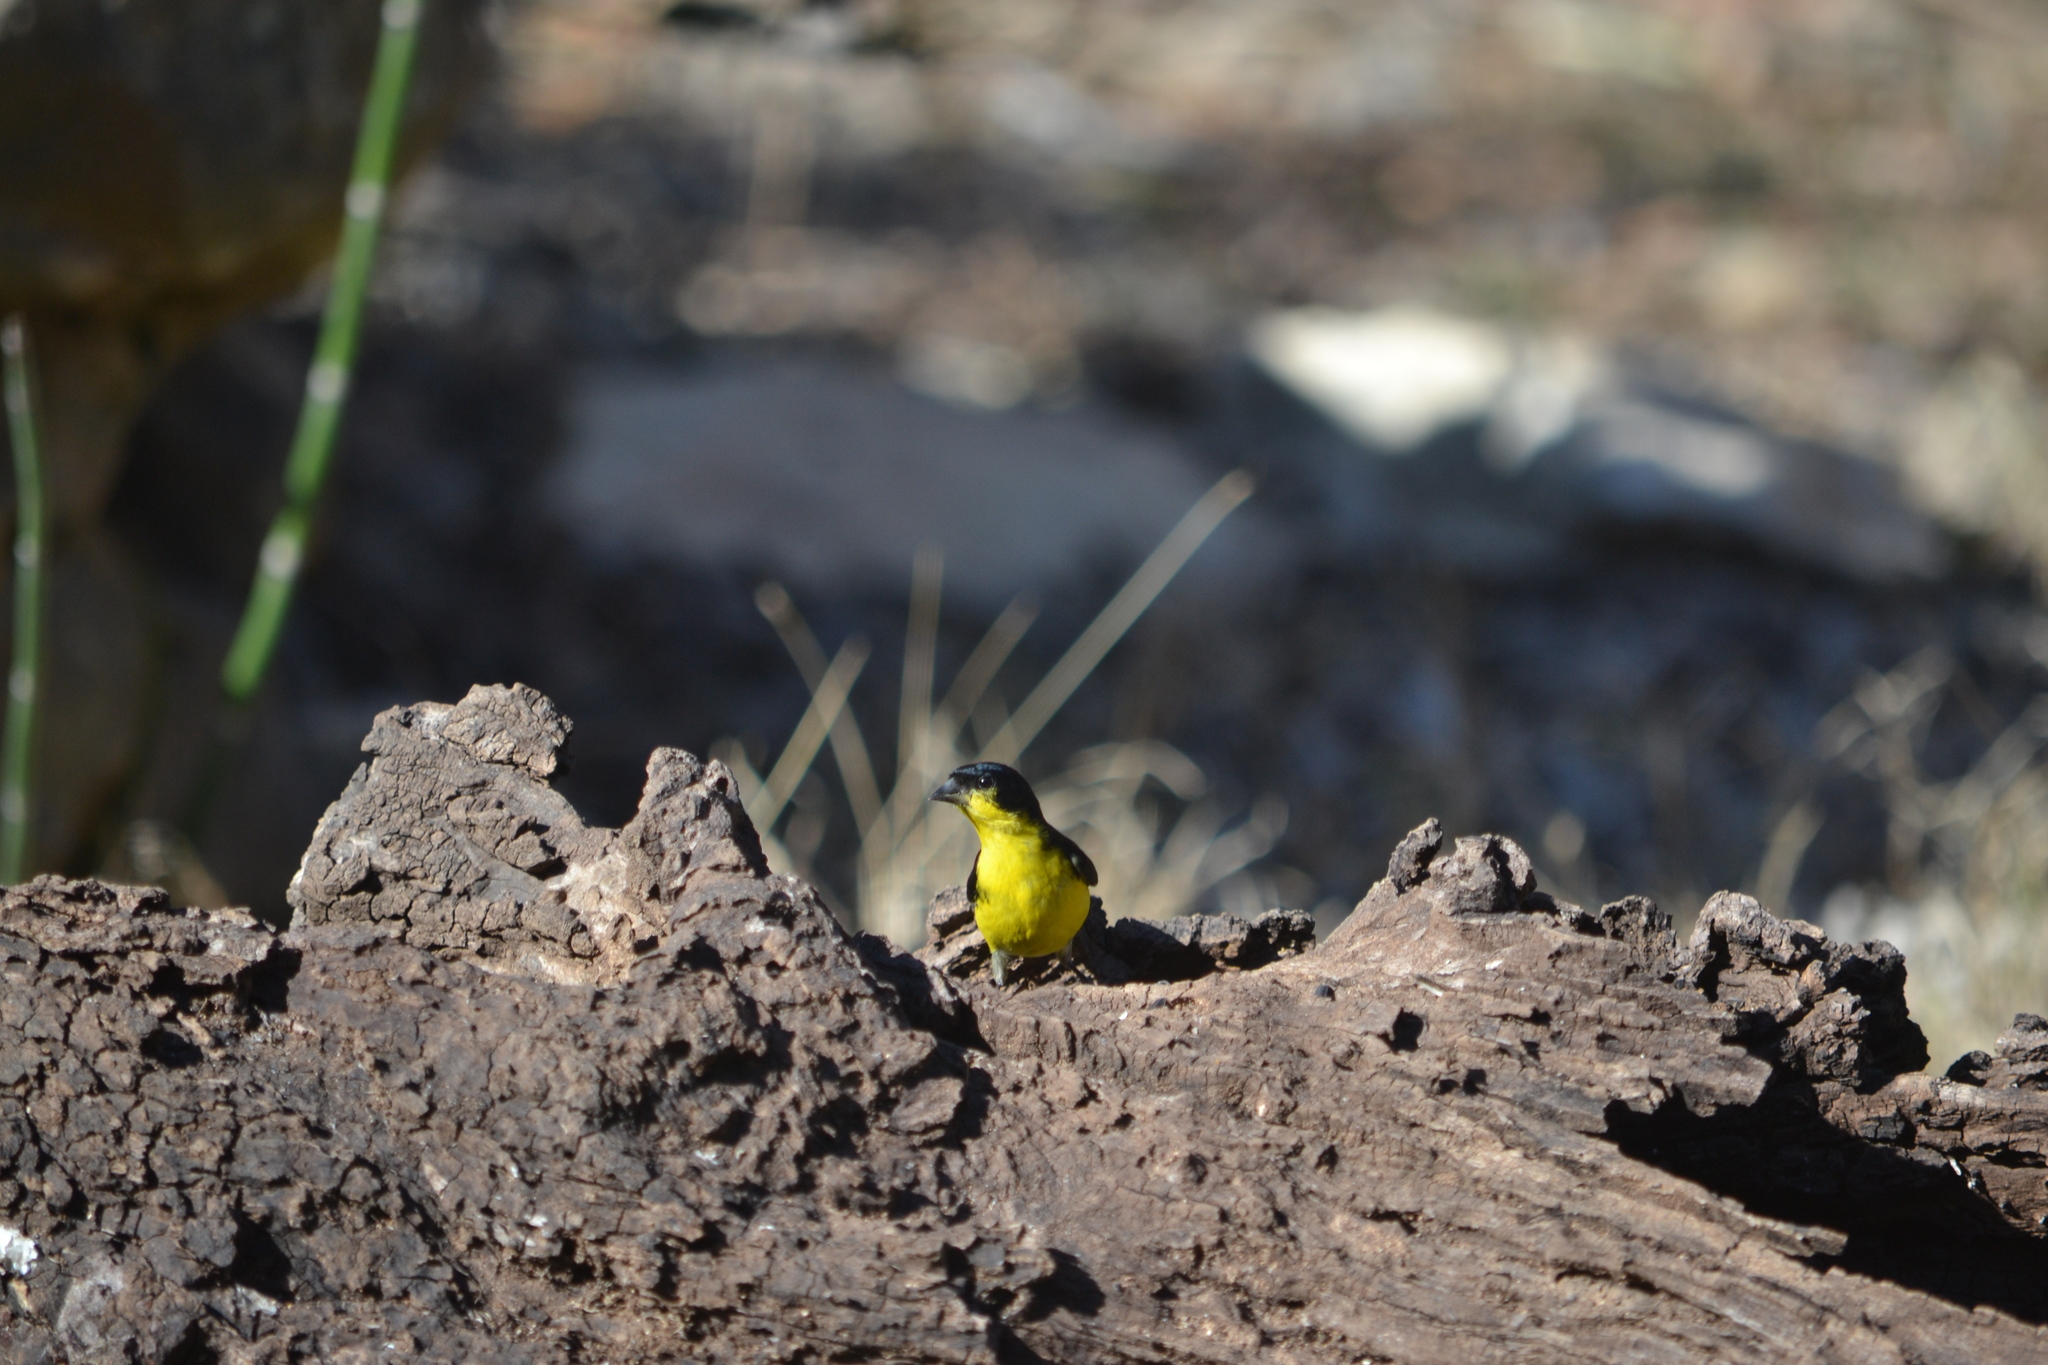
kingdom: Animalia
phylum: Chordata
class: Aves
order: Passeriformes
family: Fringillidae
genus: Spinus
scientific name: Spinus psaltria
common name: Lesser goldfinch
